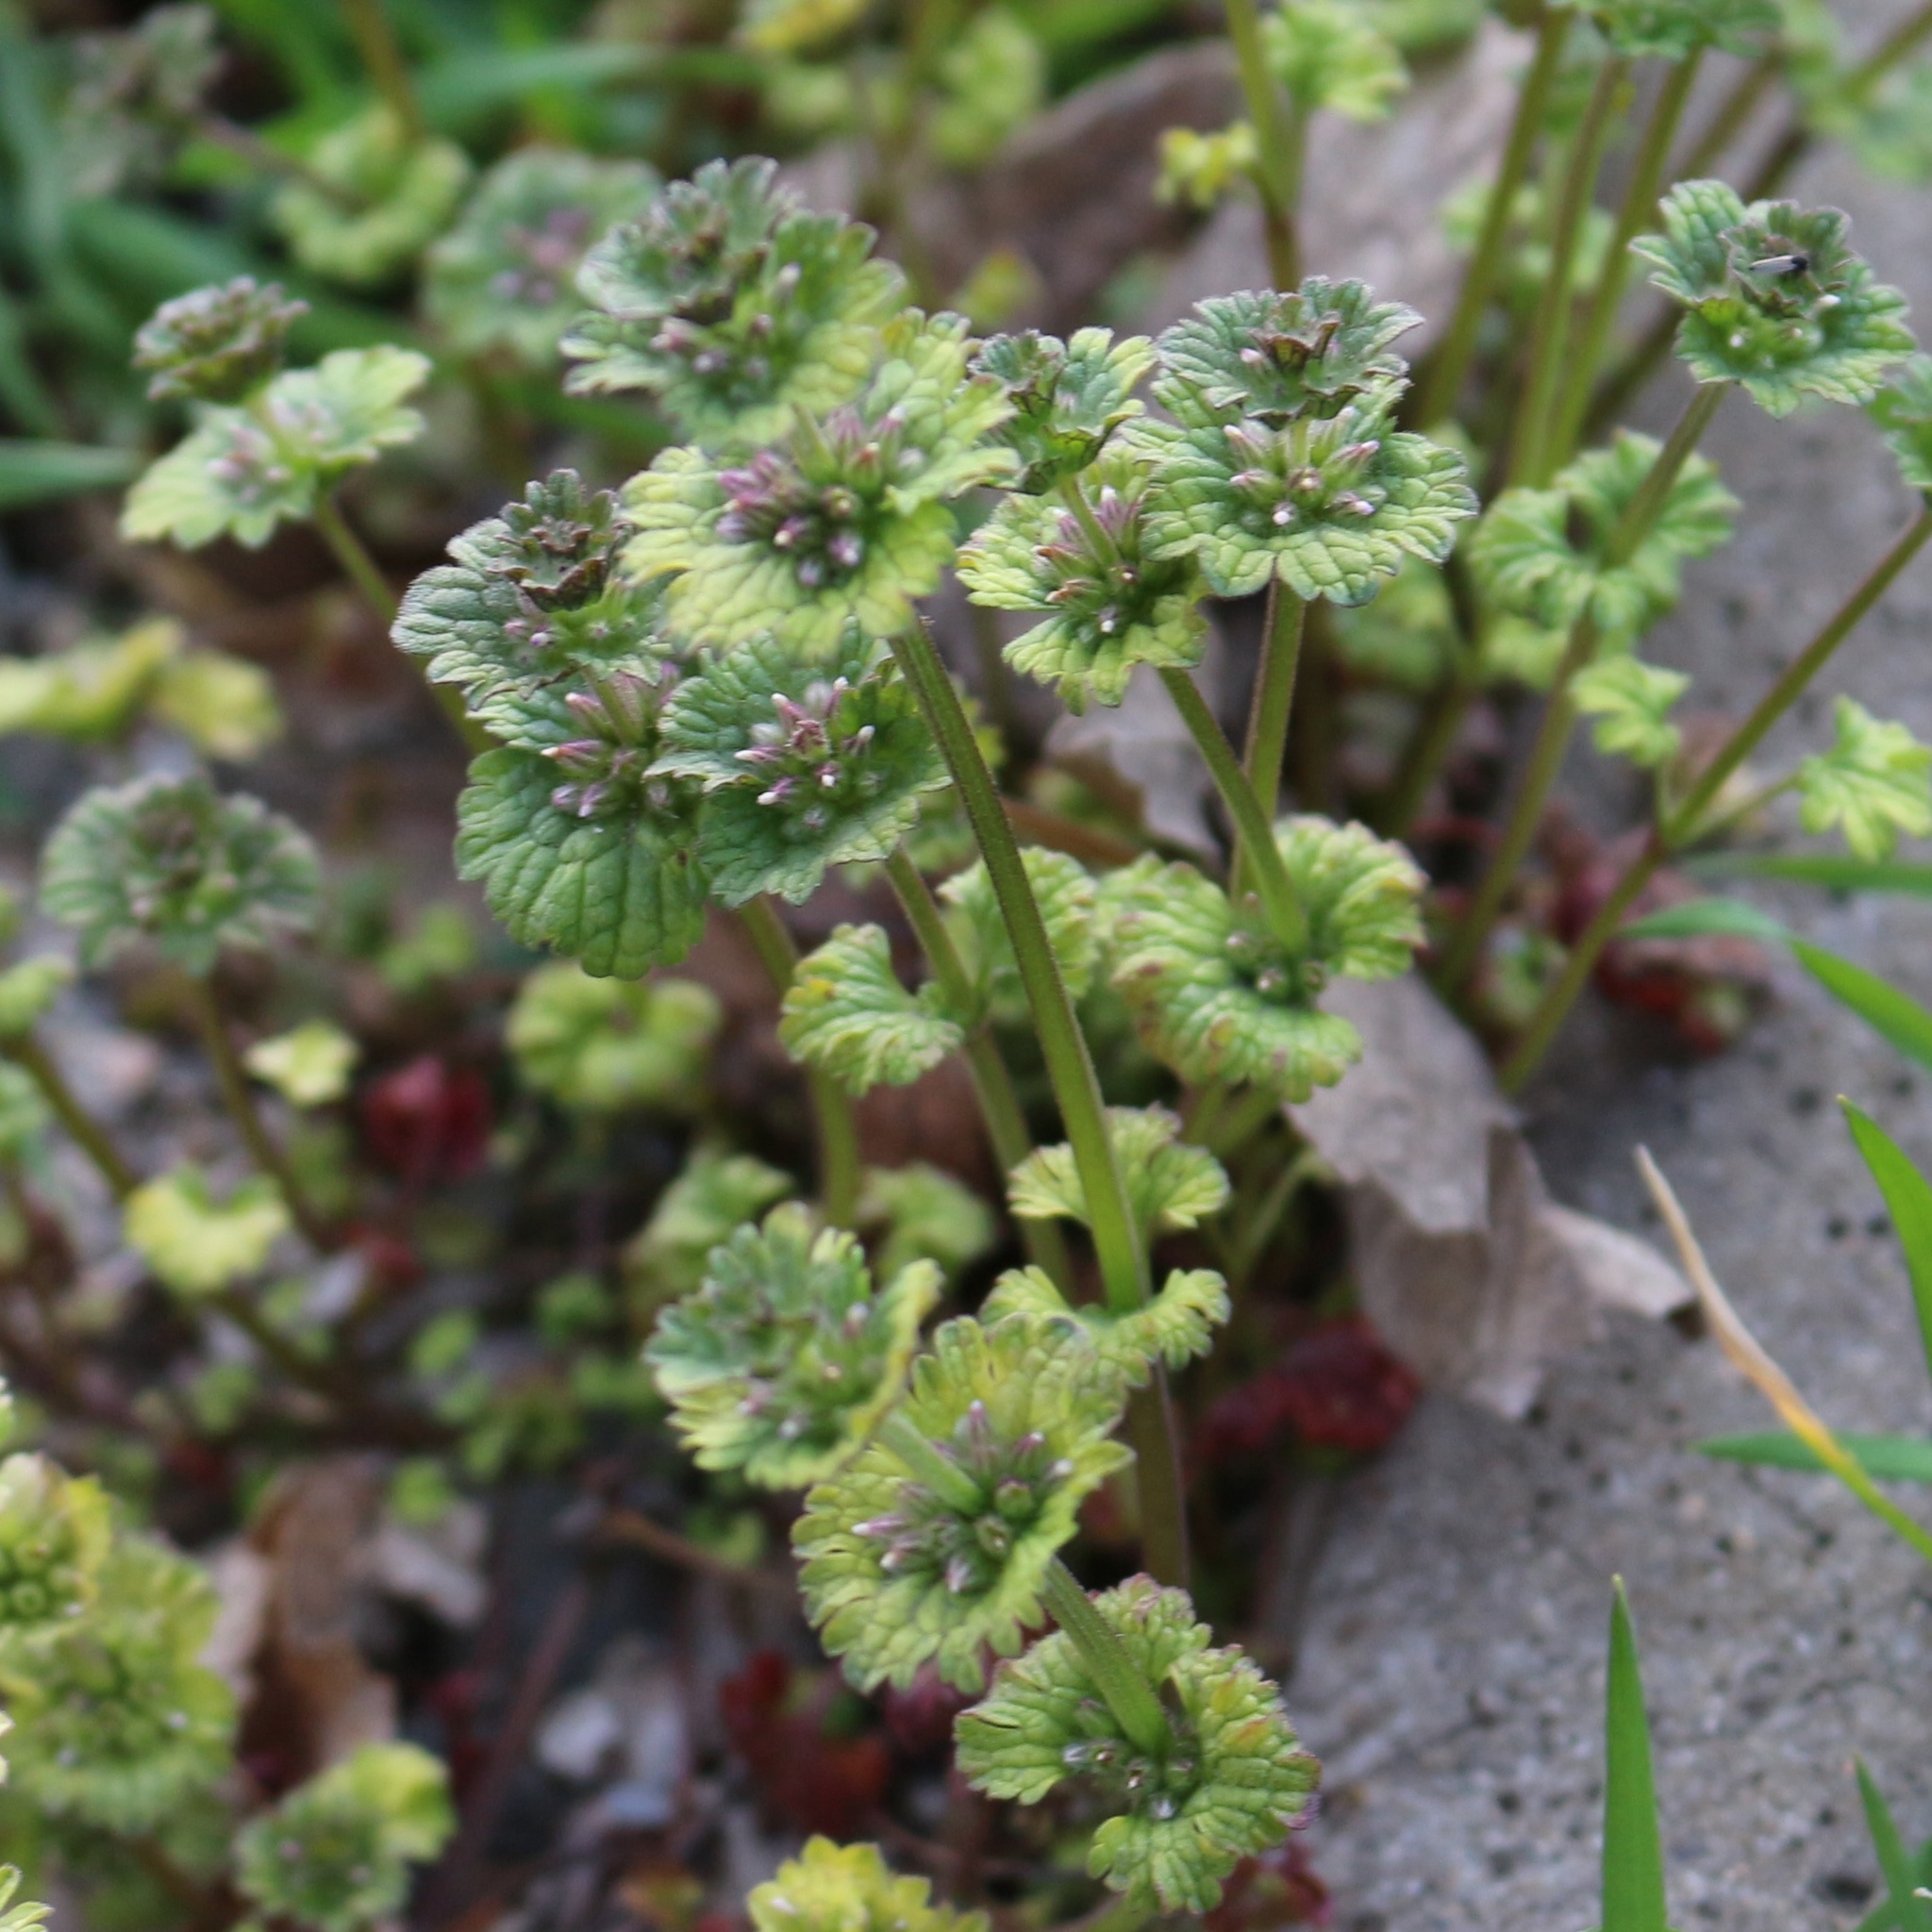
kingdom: Plantae
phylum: Tracheophyta
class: Magnoliopsida
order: Lamiales
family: Lamiaceae
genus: Lamium
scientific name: Lamium amplexicaule
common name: Henbit dead-nettle
